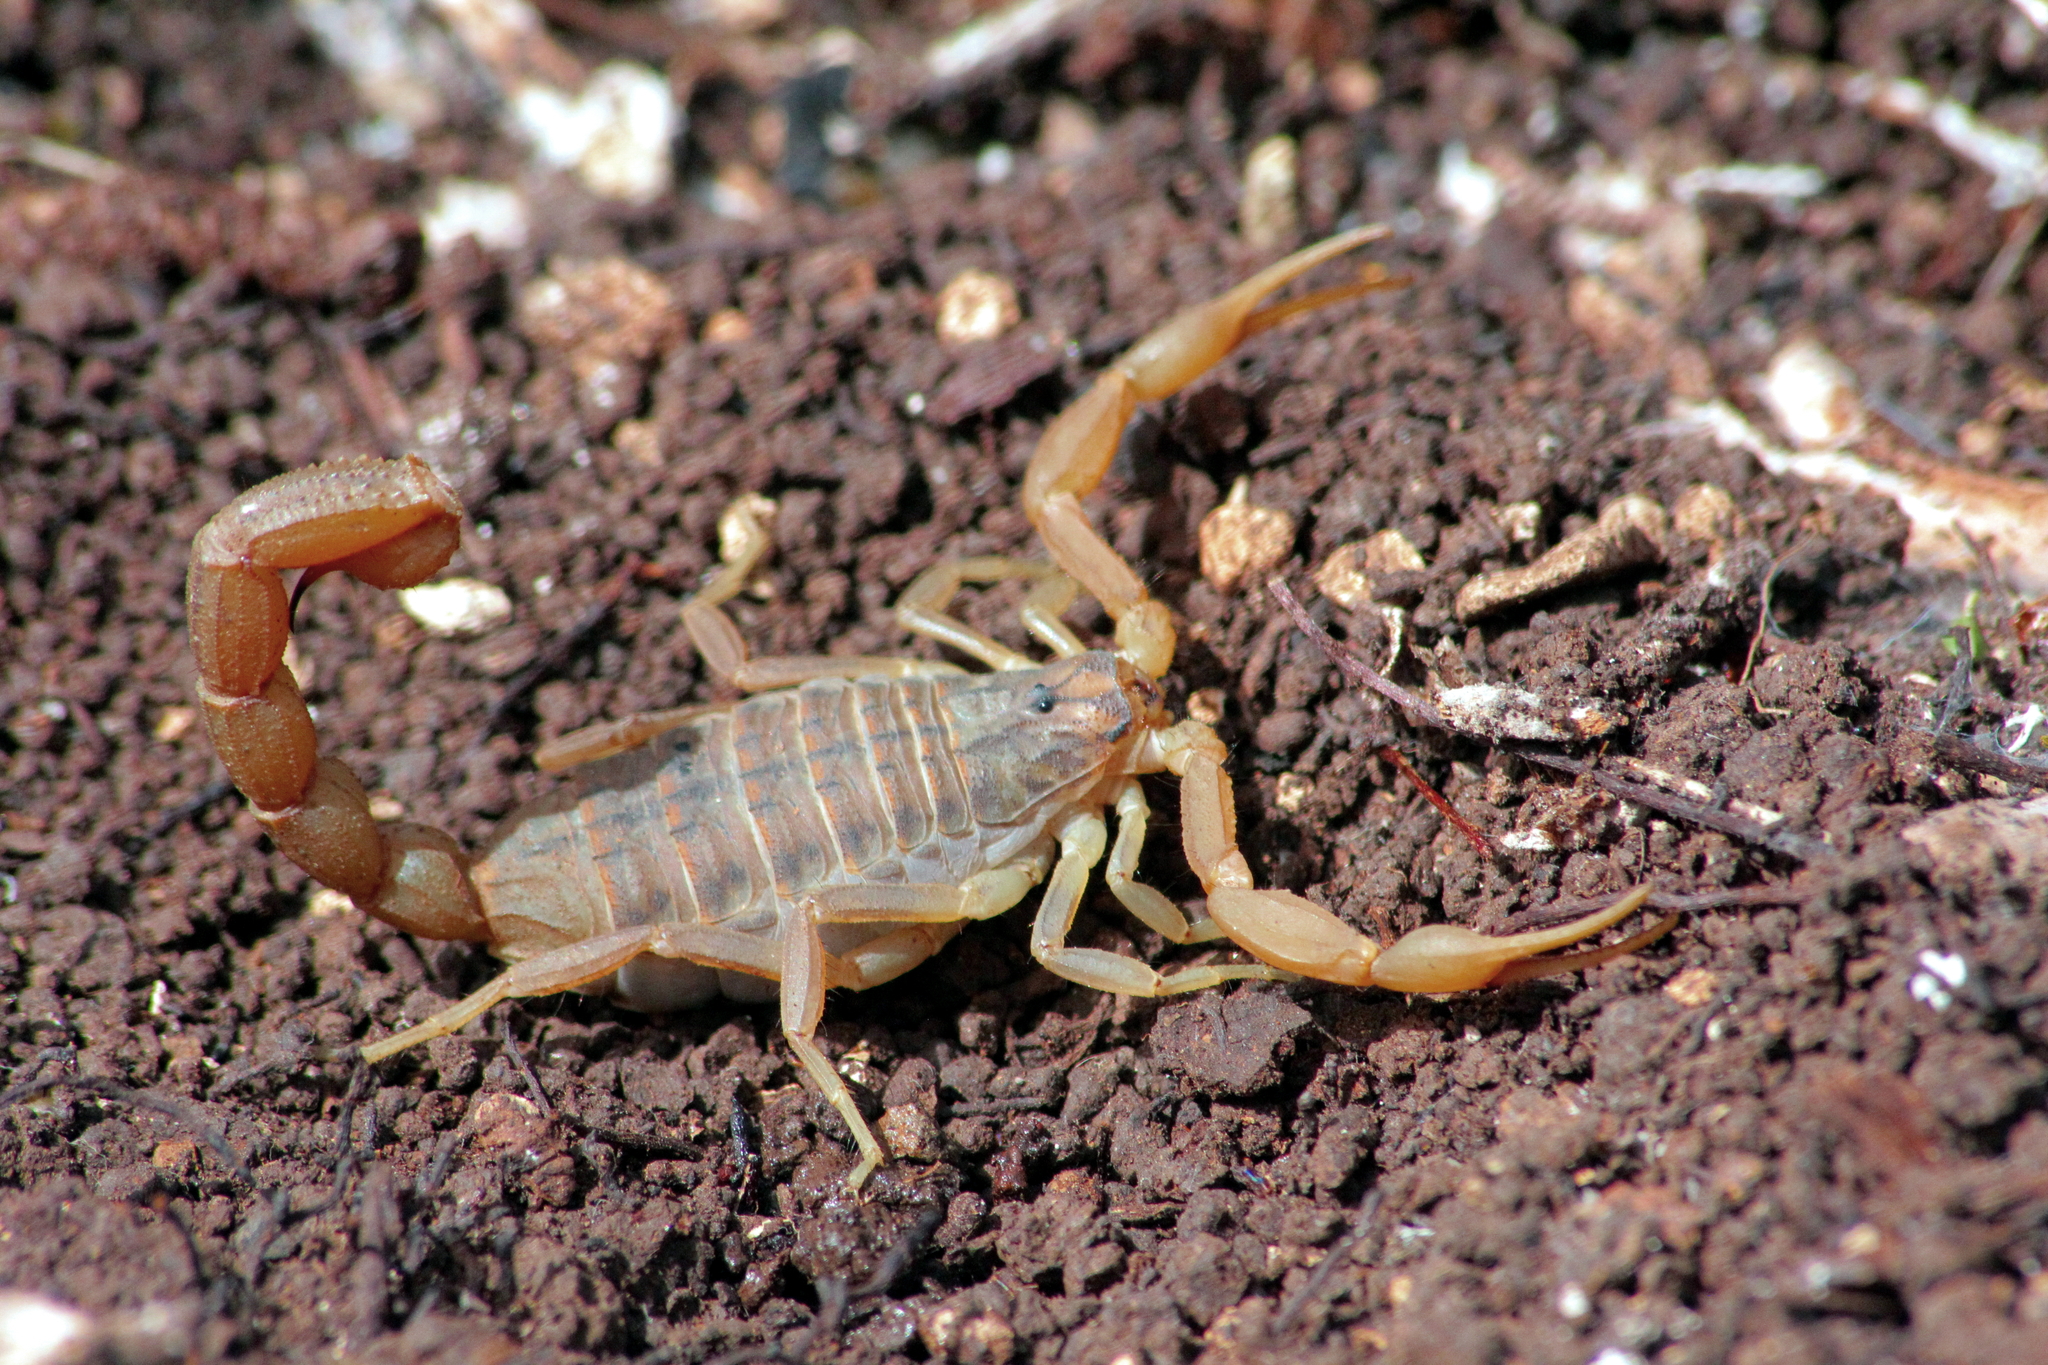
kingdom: Animalia
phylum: Arthropoda
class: Arachnida
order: Scorpiones
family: Buthidae
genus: Aegaeobuthus
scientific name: Aegaeobuthus cyprius
